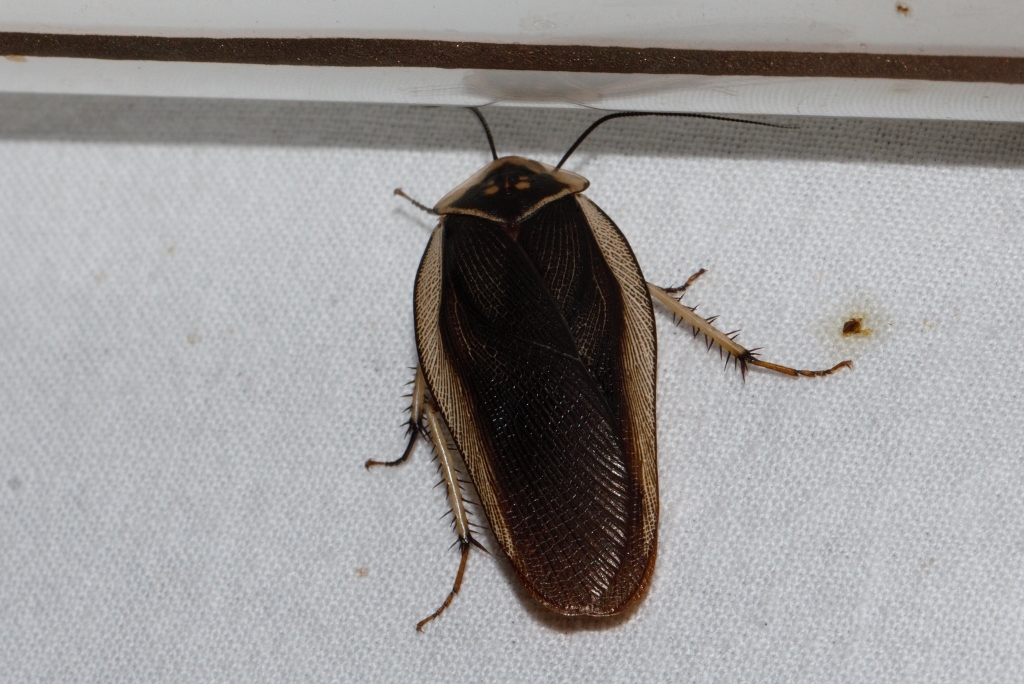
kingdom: Animalia
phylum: Arthropoda
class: Insecta
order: Blattodea
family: Blaberidae
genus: Gynopeltis
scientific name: Gynopeltis cryptospila
